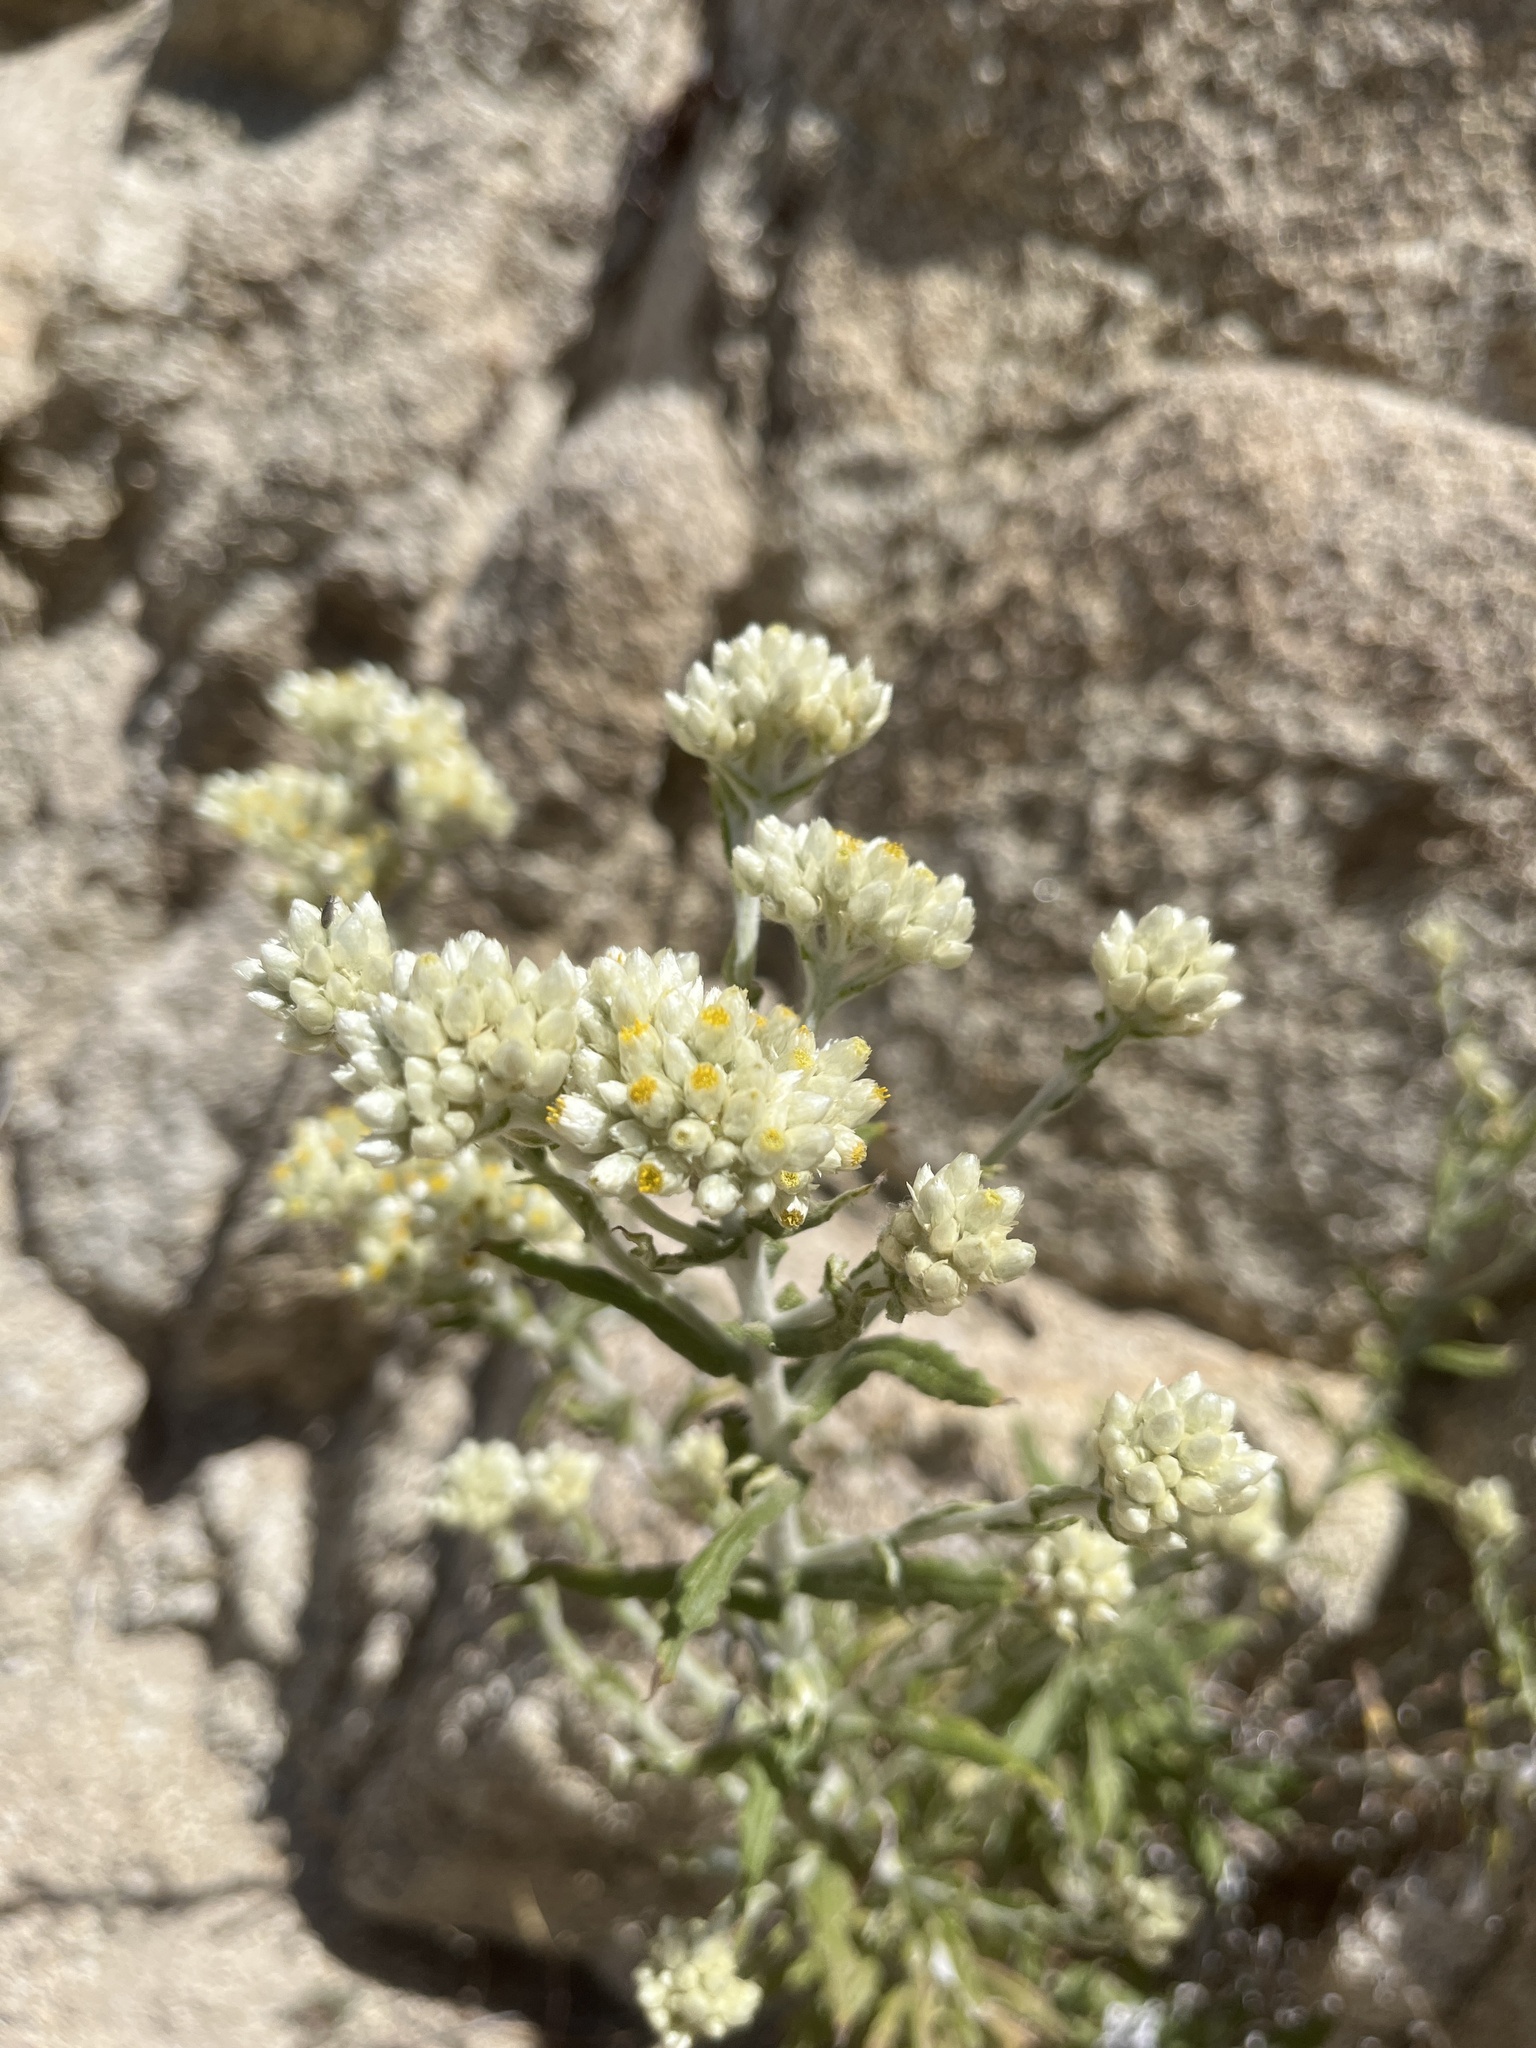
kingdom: Plantae
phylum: Tracheophyta
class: Magnoliopsida
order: Asterales
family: Asteraceae
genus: Pseudognaphalium
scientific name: Pseudognaphalium biolettii
